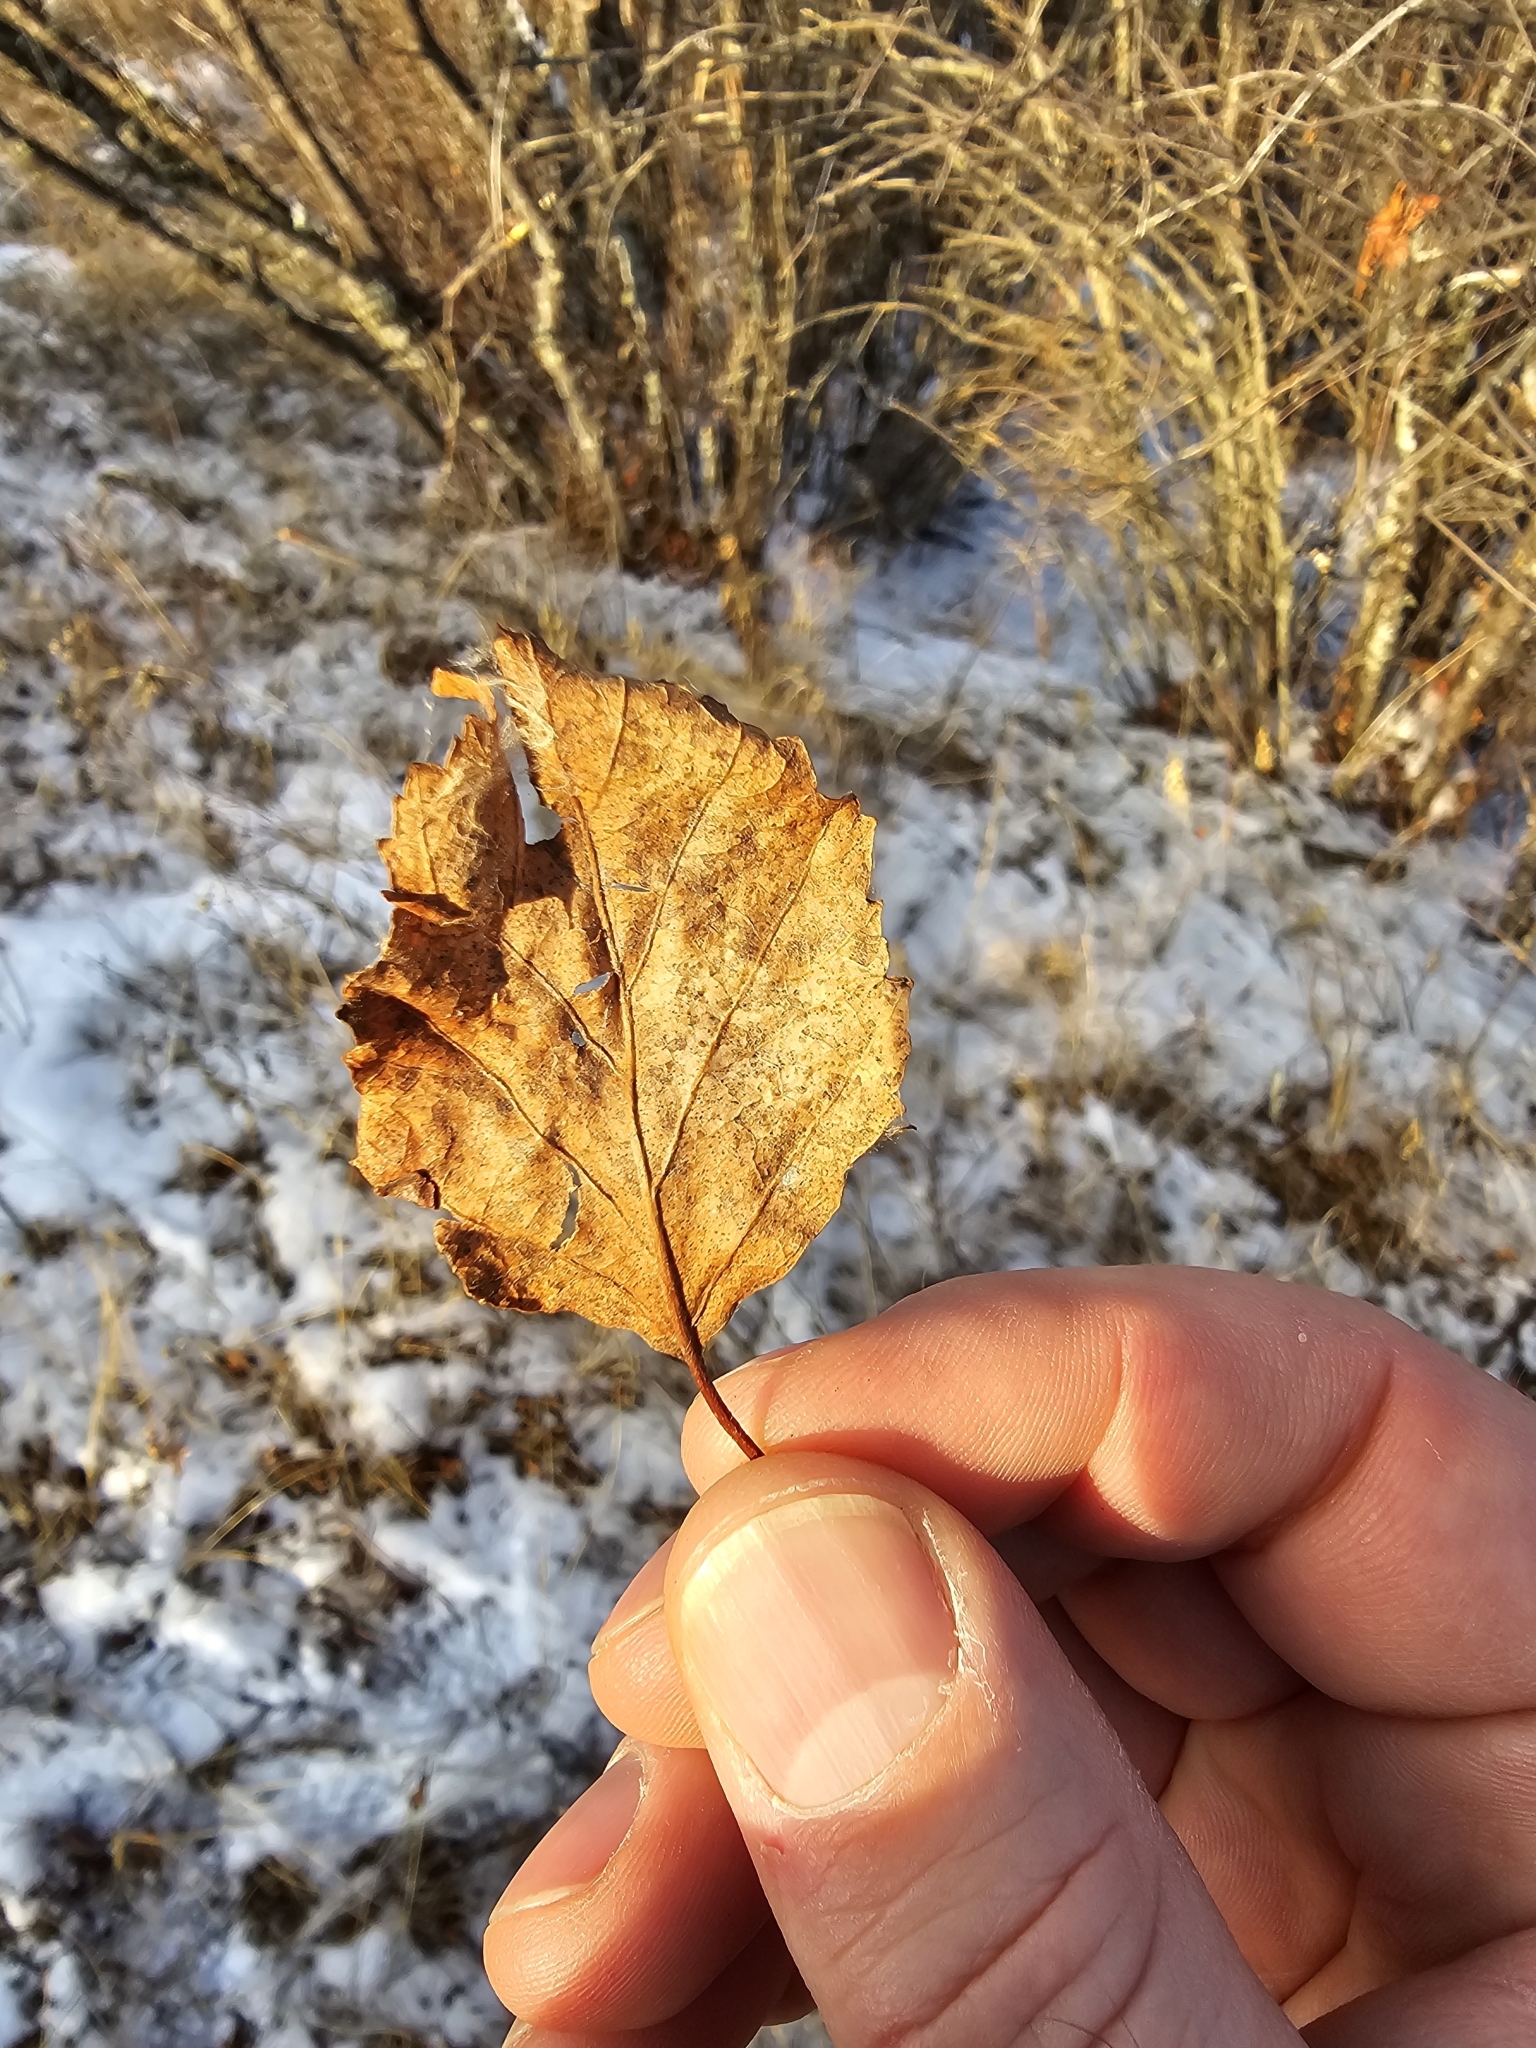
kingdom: Plantae
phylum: Tracheophyta
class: Magnoliopsida
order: Fagales
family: Betulaceae
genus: Betula
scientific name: Betula occidentalis
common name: River birch
